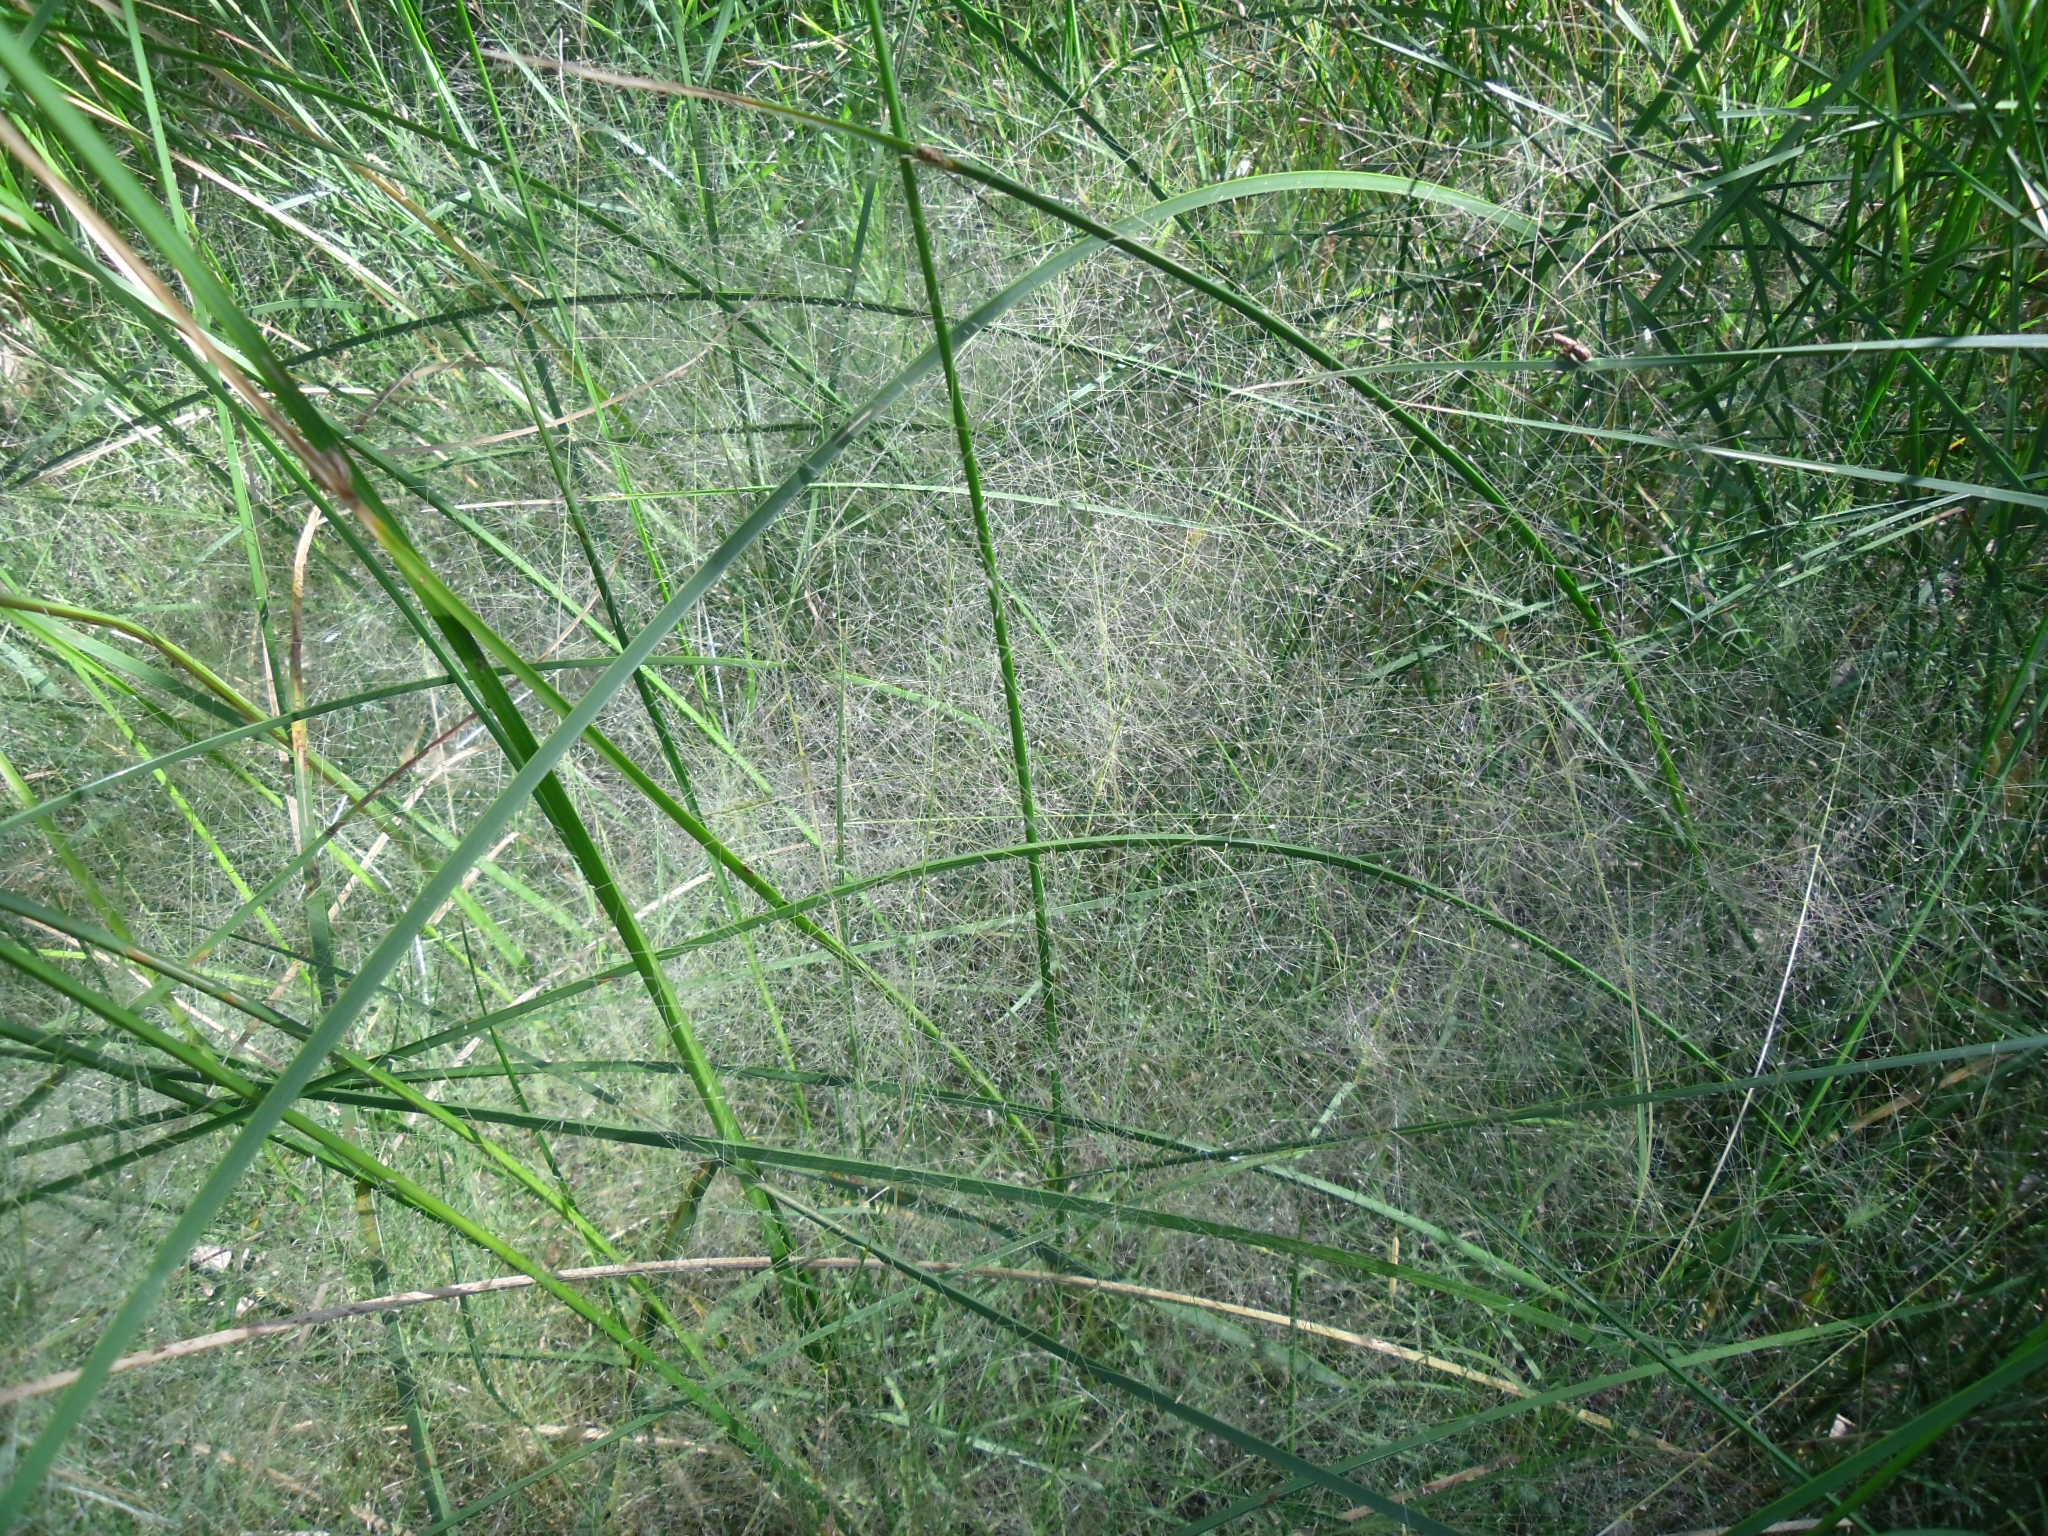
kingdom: Plantae
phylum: Tracheophyta
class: Liliopsida
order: Poales
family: Poaceae
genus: Muhlenbergia
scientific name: Muhlenbergia asperifolia
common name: Alkali muhly
